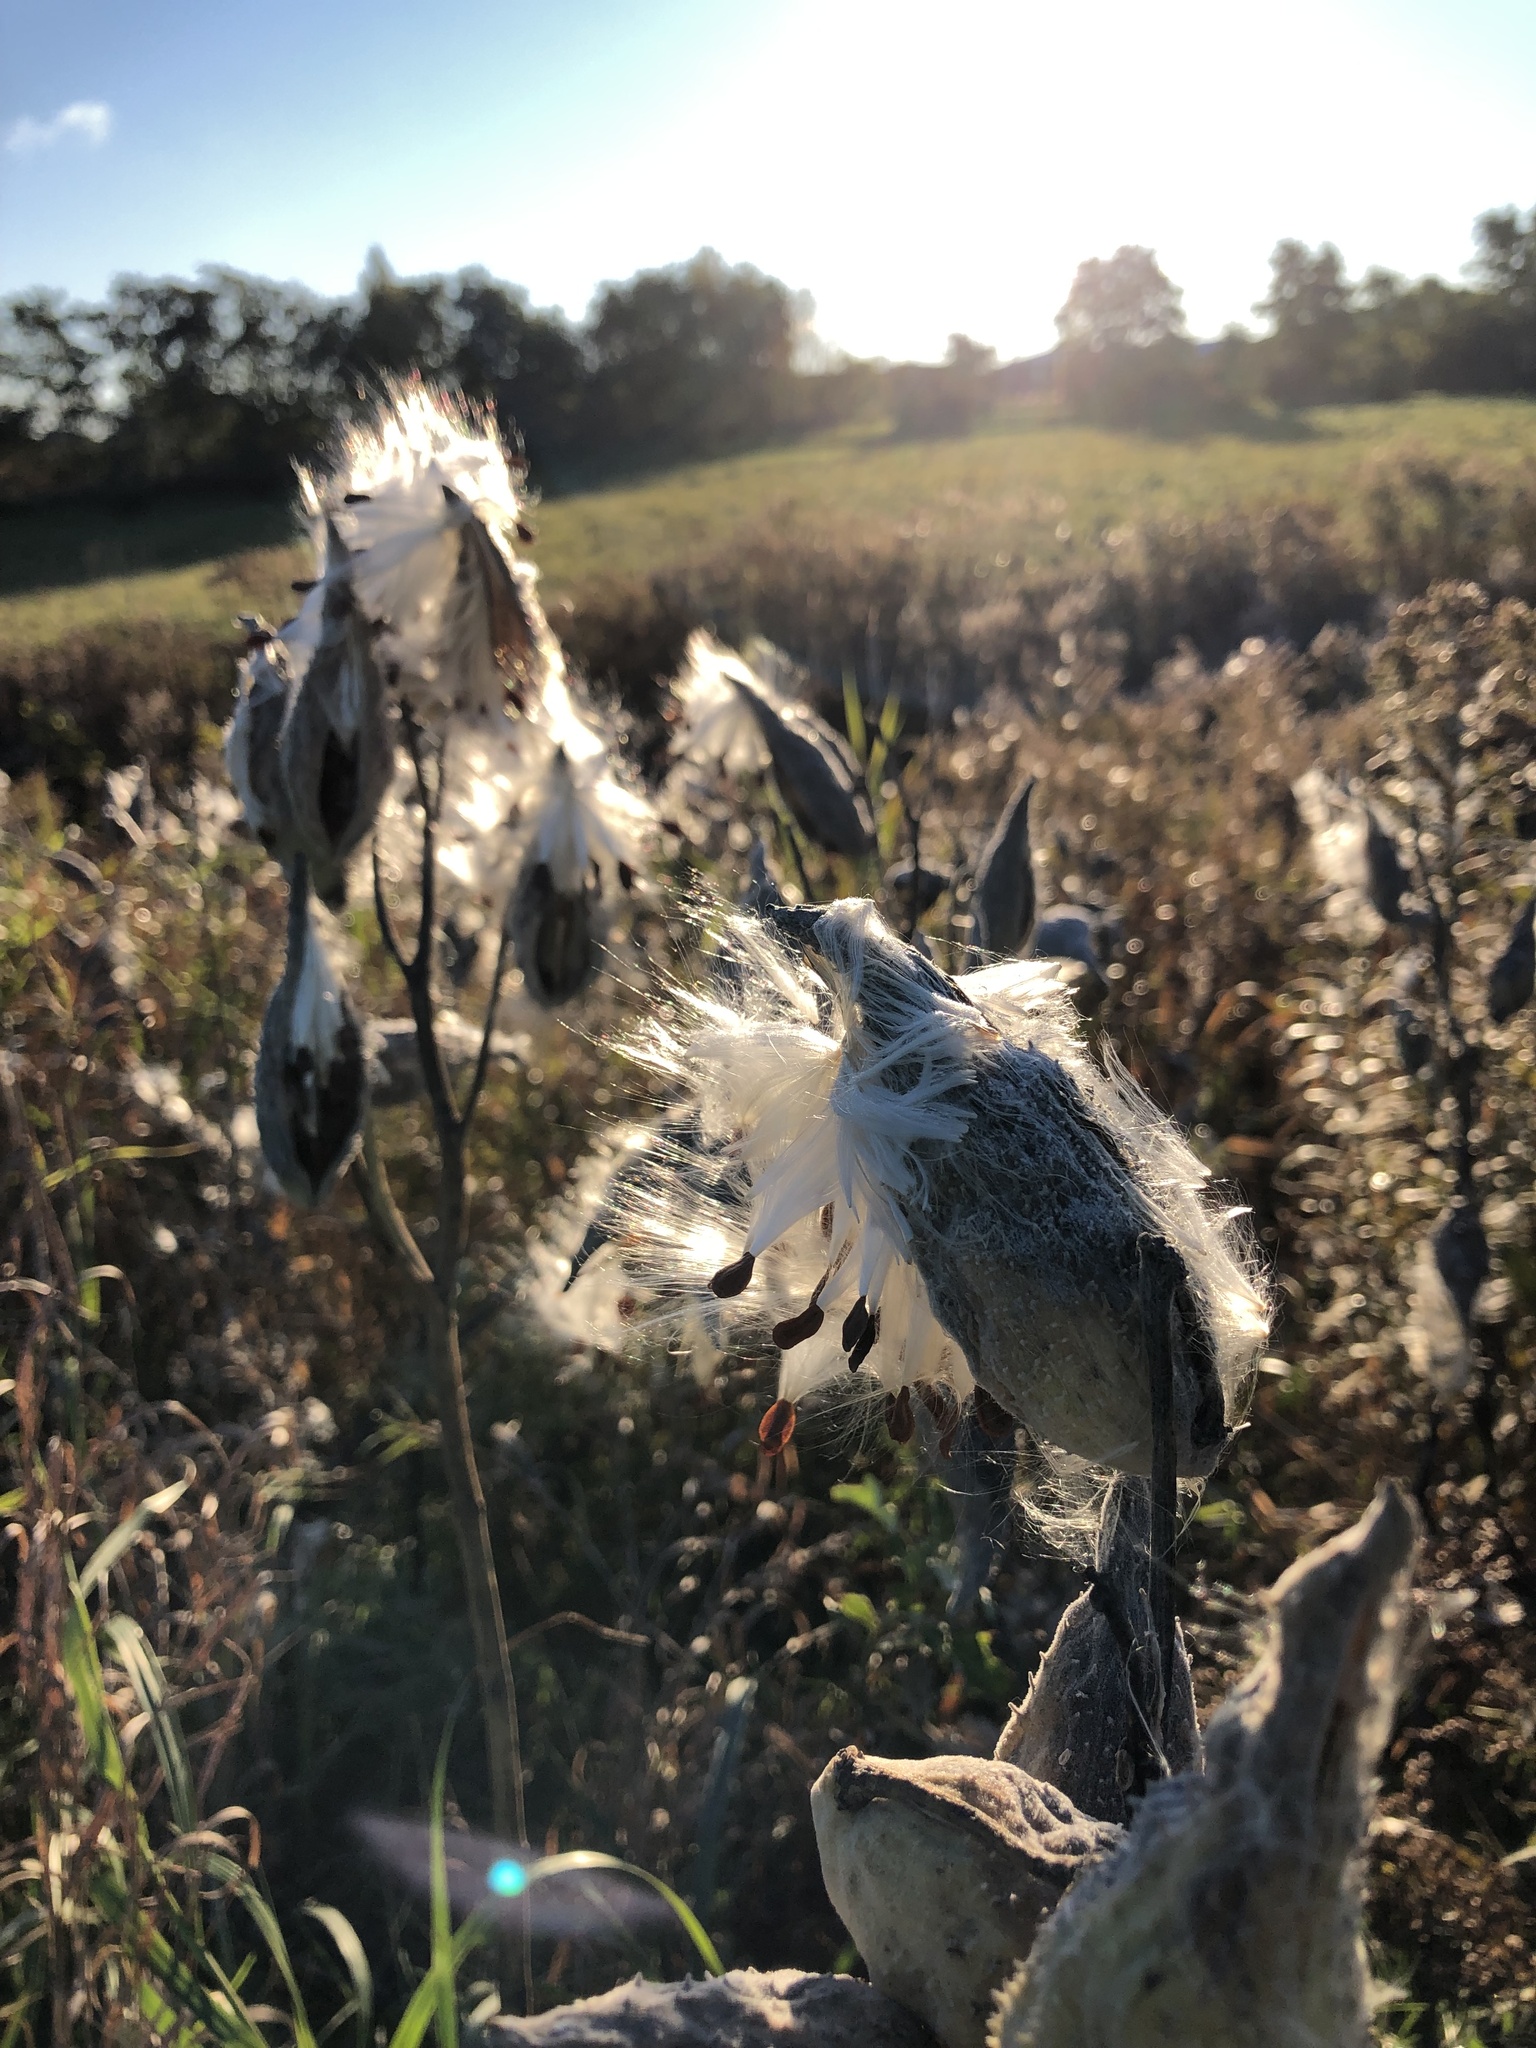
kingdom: Plantae
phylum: Tracheophyta
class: Magnoliopsida
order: Gentianales
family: Apocynaceae
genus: Asclepias
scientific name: Asclepias syriaca
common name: Common milkweed
